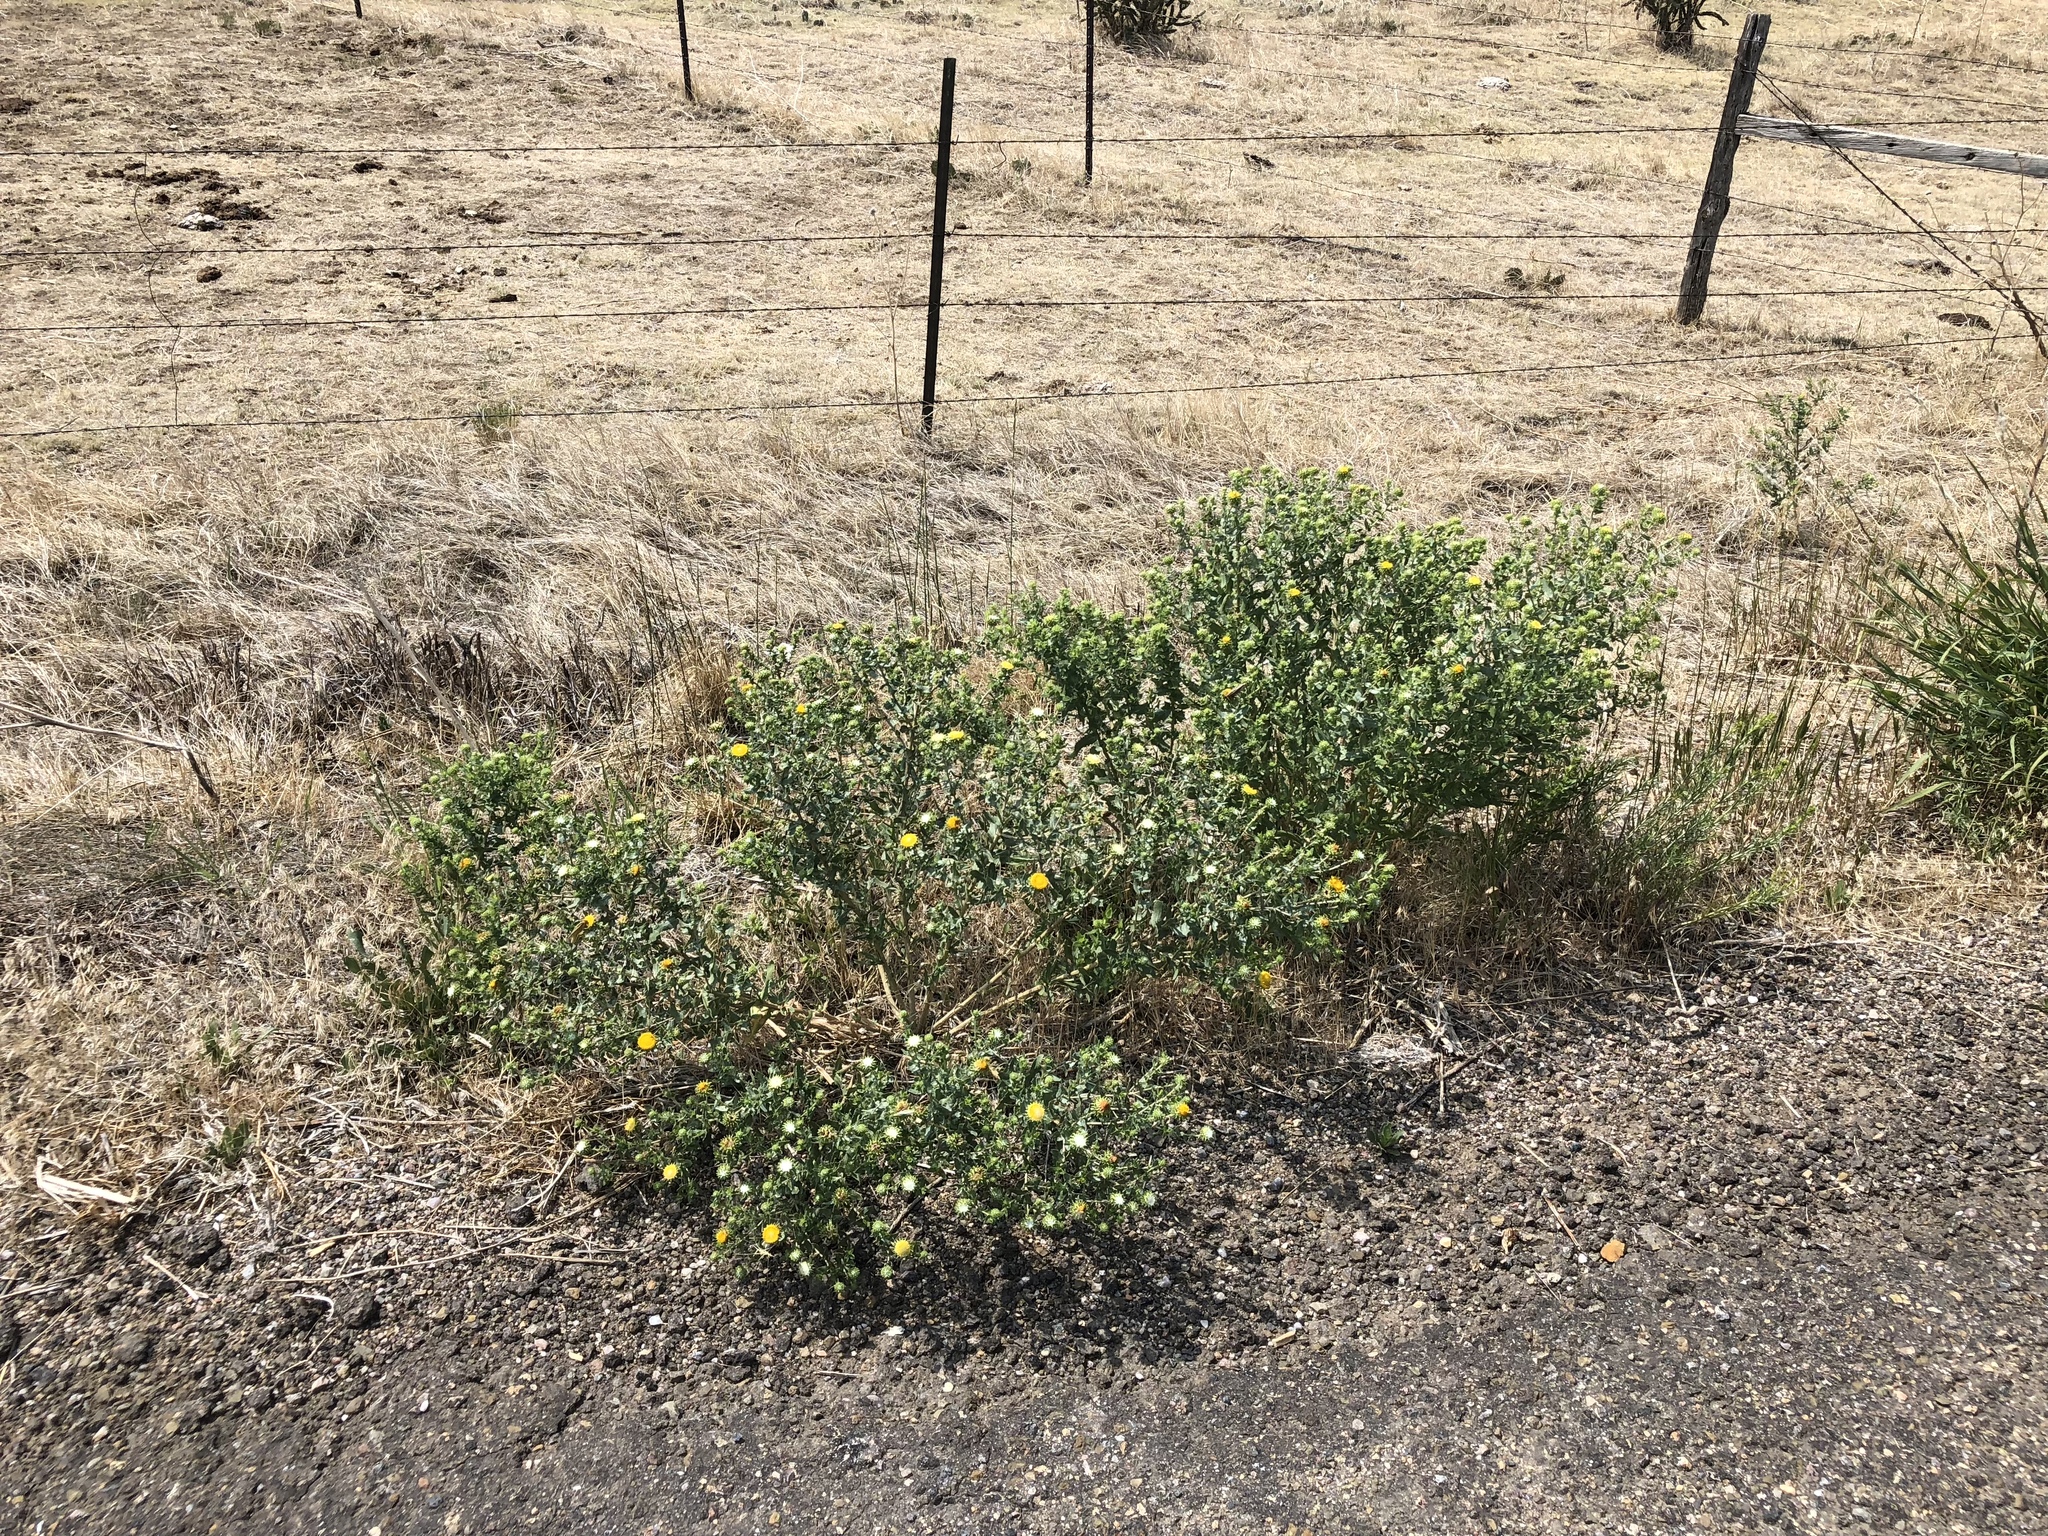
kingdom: Plantae
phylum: Tracheophyta
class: Magnoliopsida
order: Asterales
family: Asteraceae
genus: Grindelia
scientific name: Grindelia squarrosa
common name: Curly-cup gumweed
